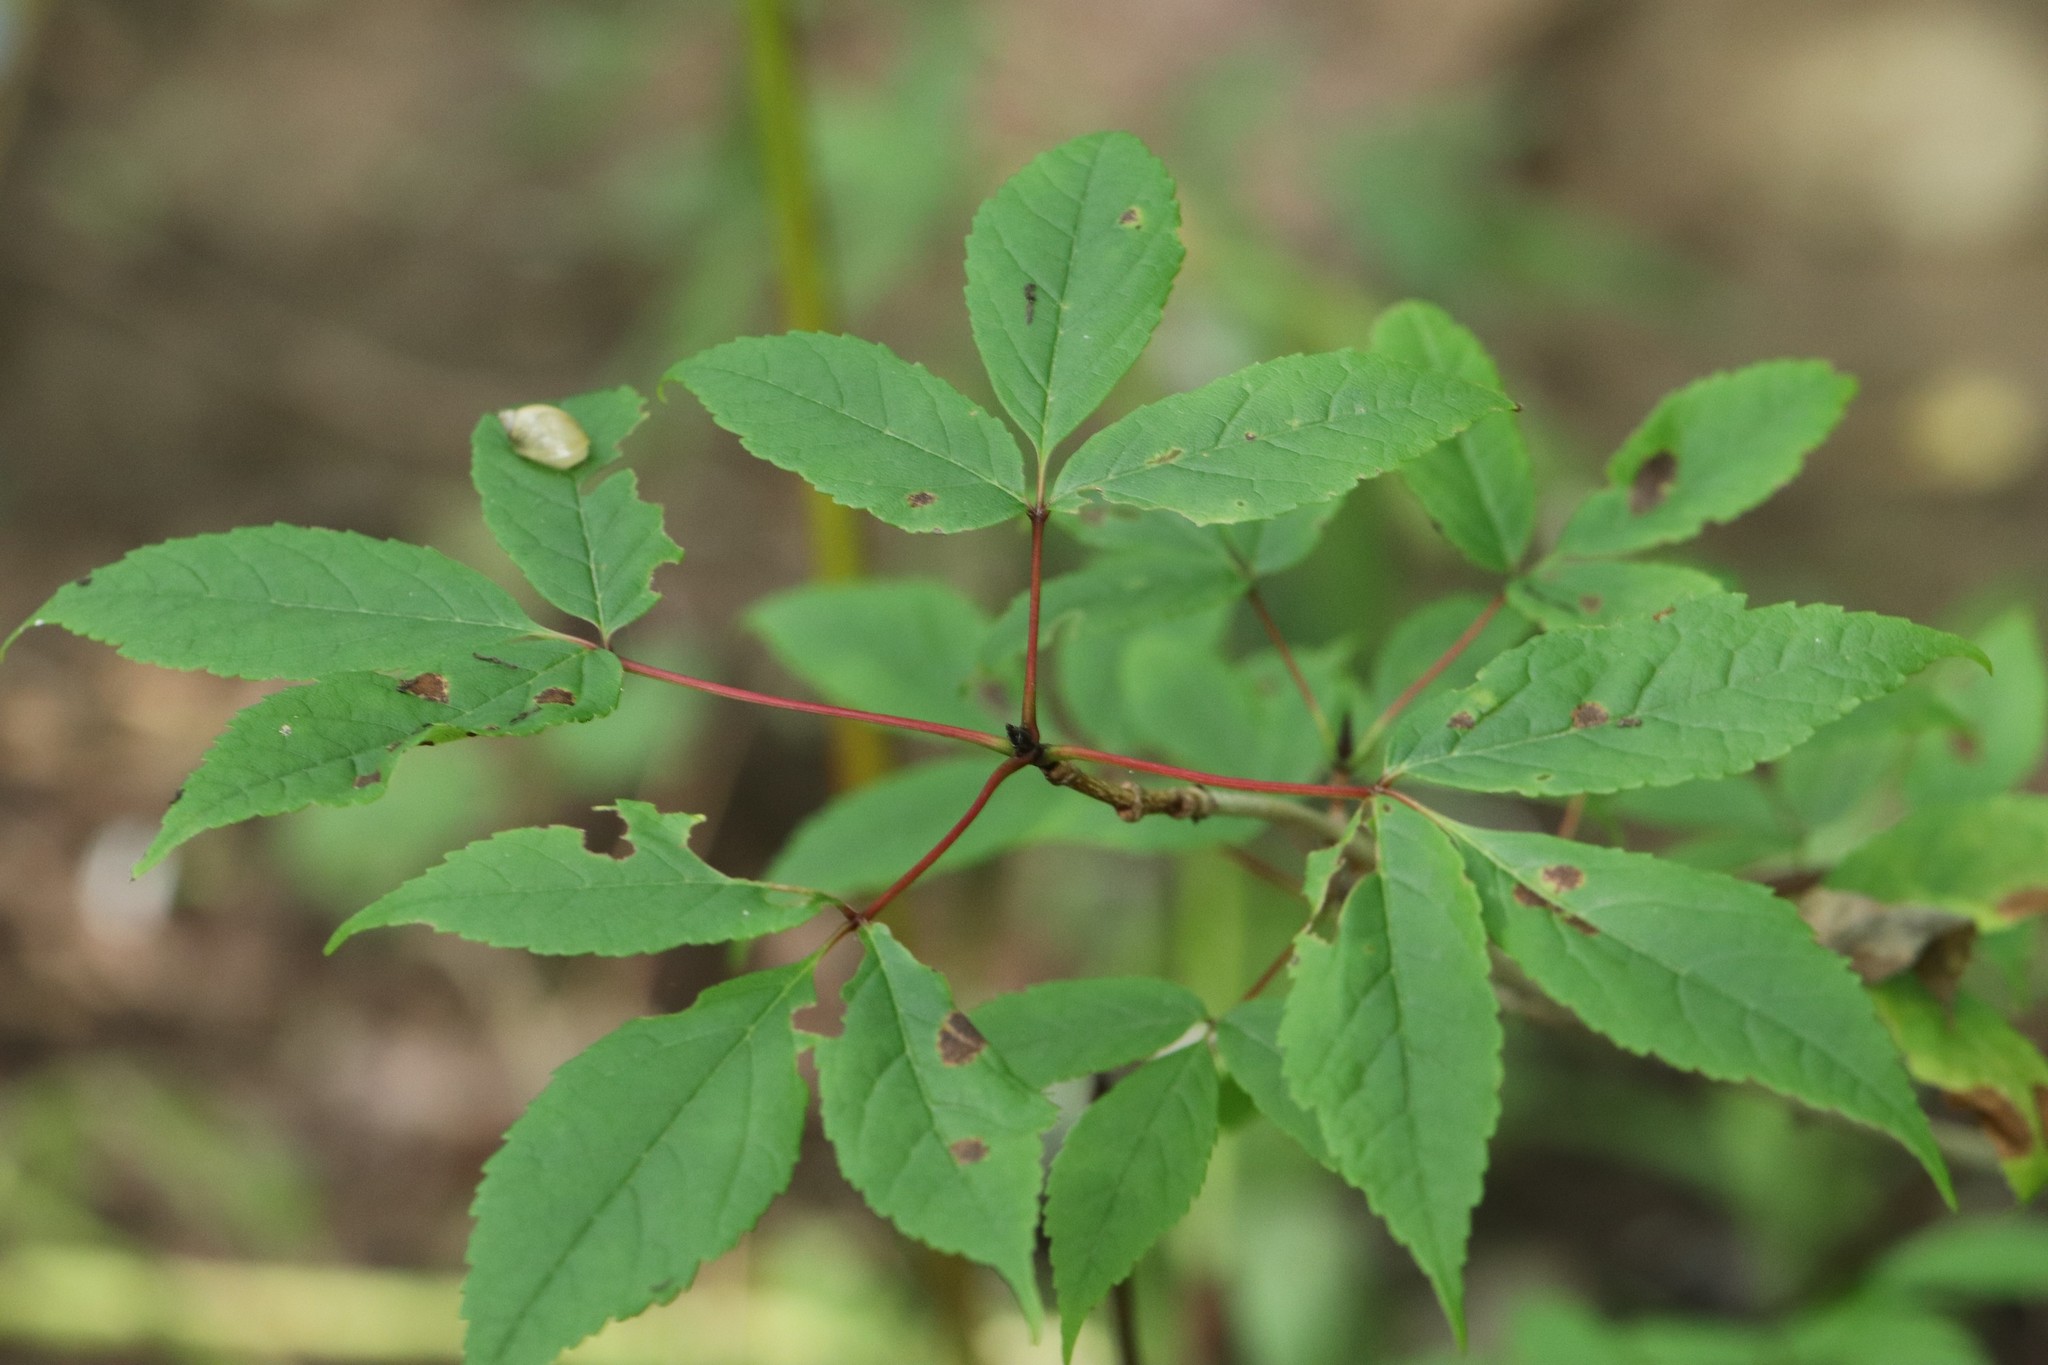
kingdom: Plantae
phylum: Tracheophyta
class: Magnoliopsida
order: Sapindales
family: Sapindaceae
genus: Acer
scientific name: Acer mandshuricum
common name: Manchurian maple
